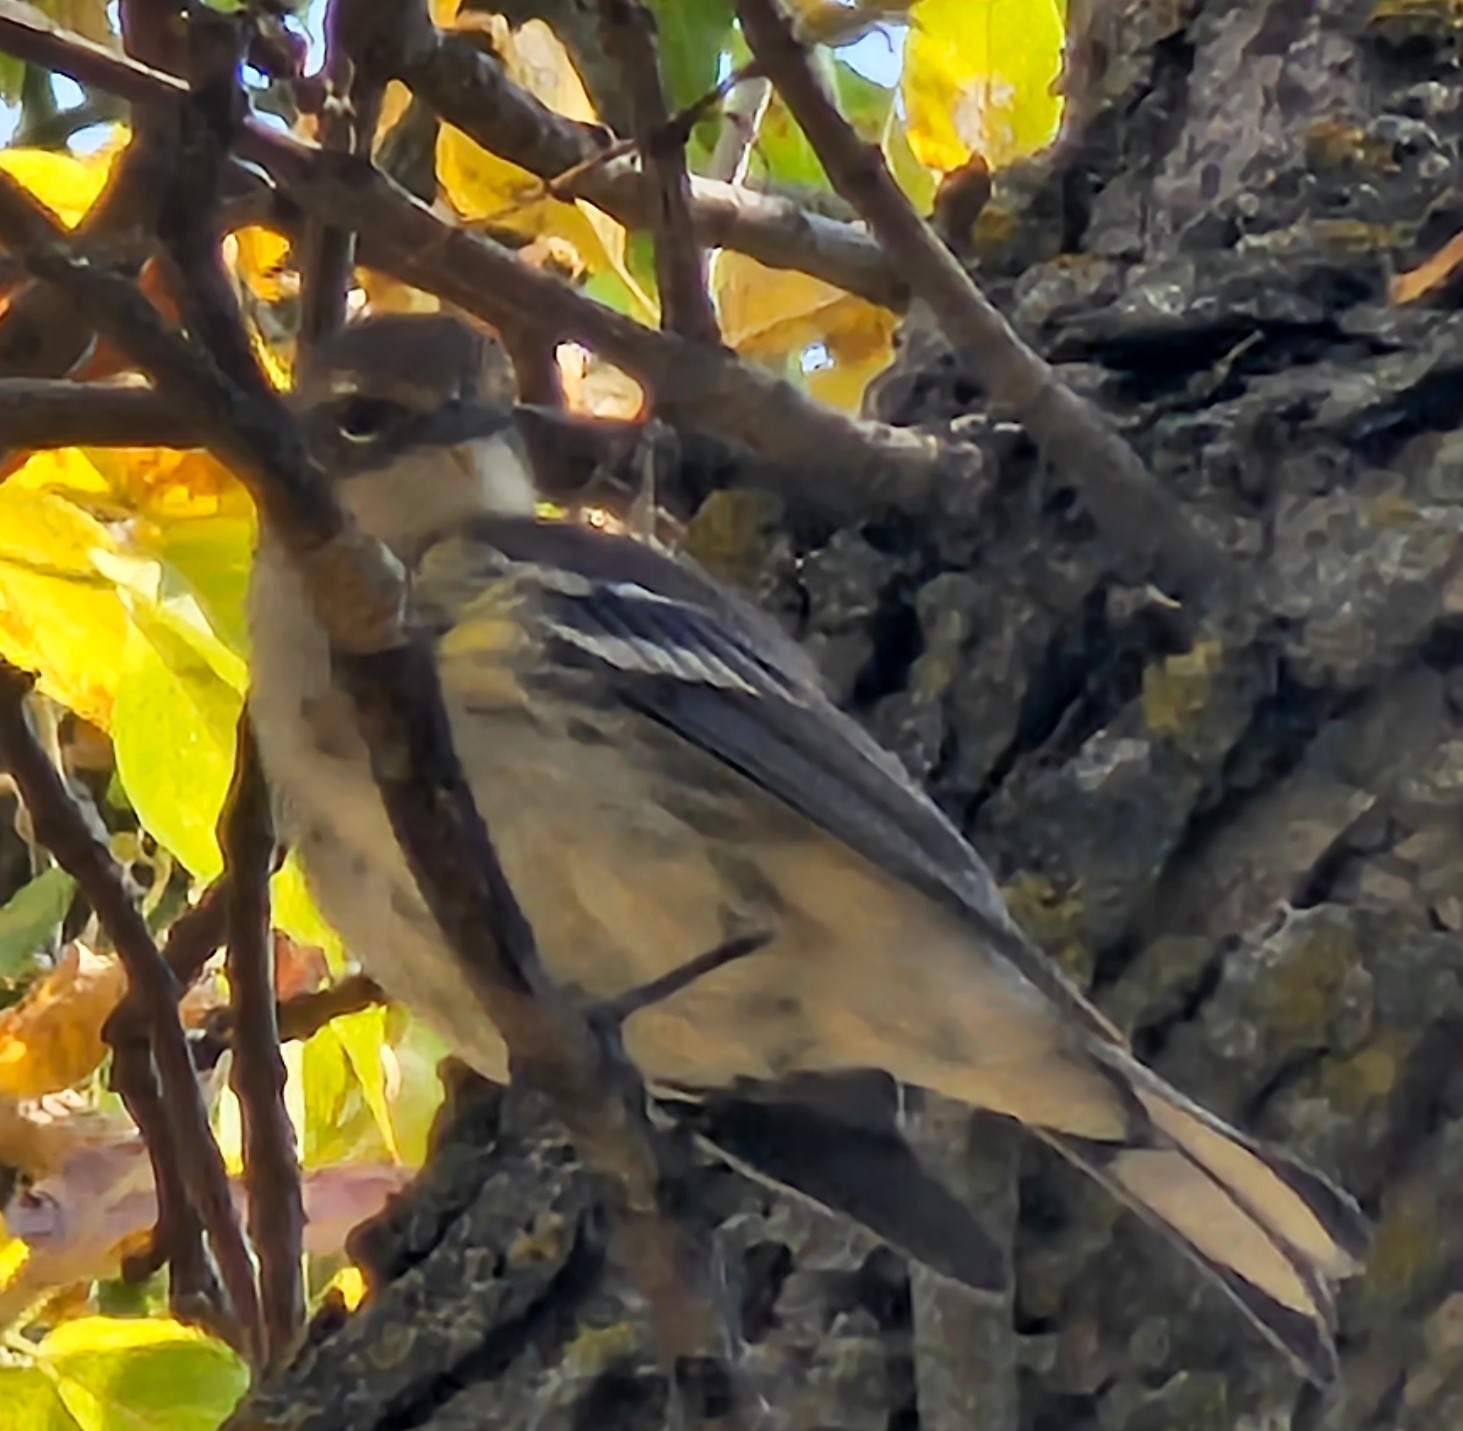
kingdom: Animalia
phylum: Chordata
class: Aves
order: Passeriformes
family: Parulidae
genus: Setophaga
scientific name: Setophaga coronata
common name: Myrtle warbler
